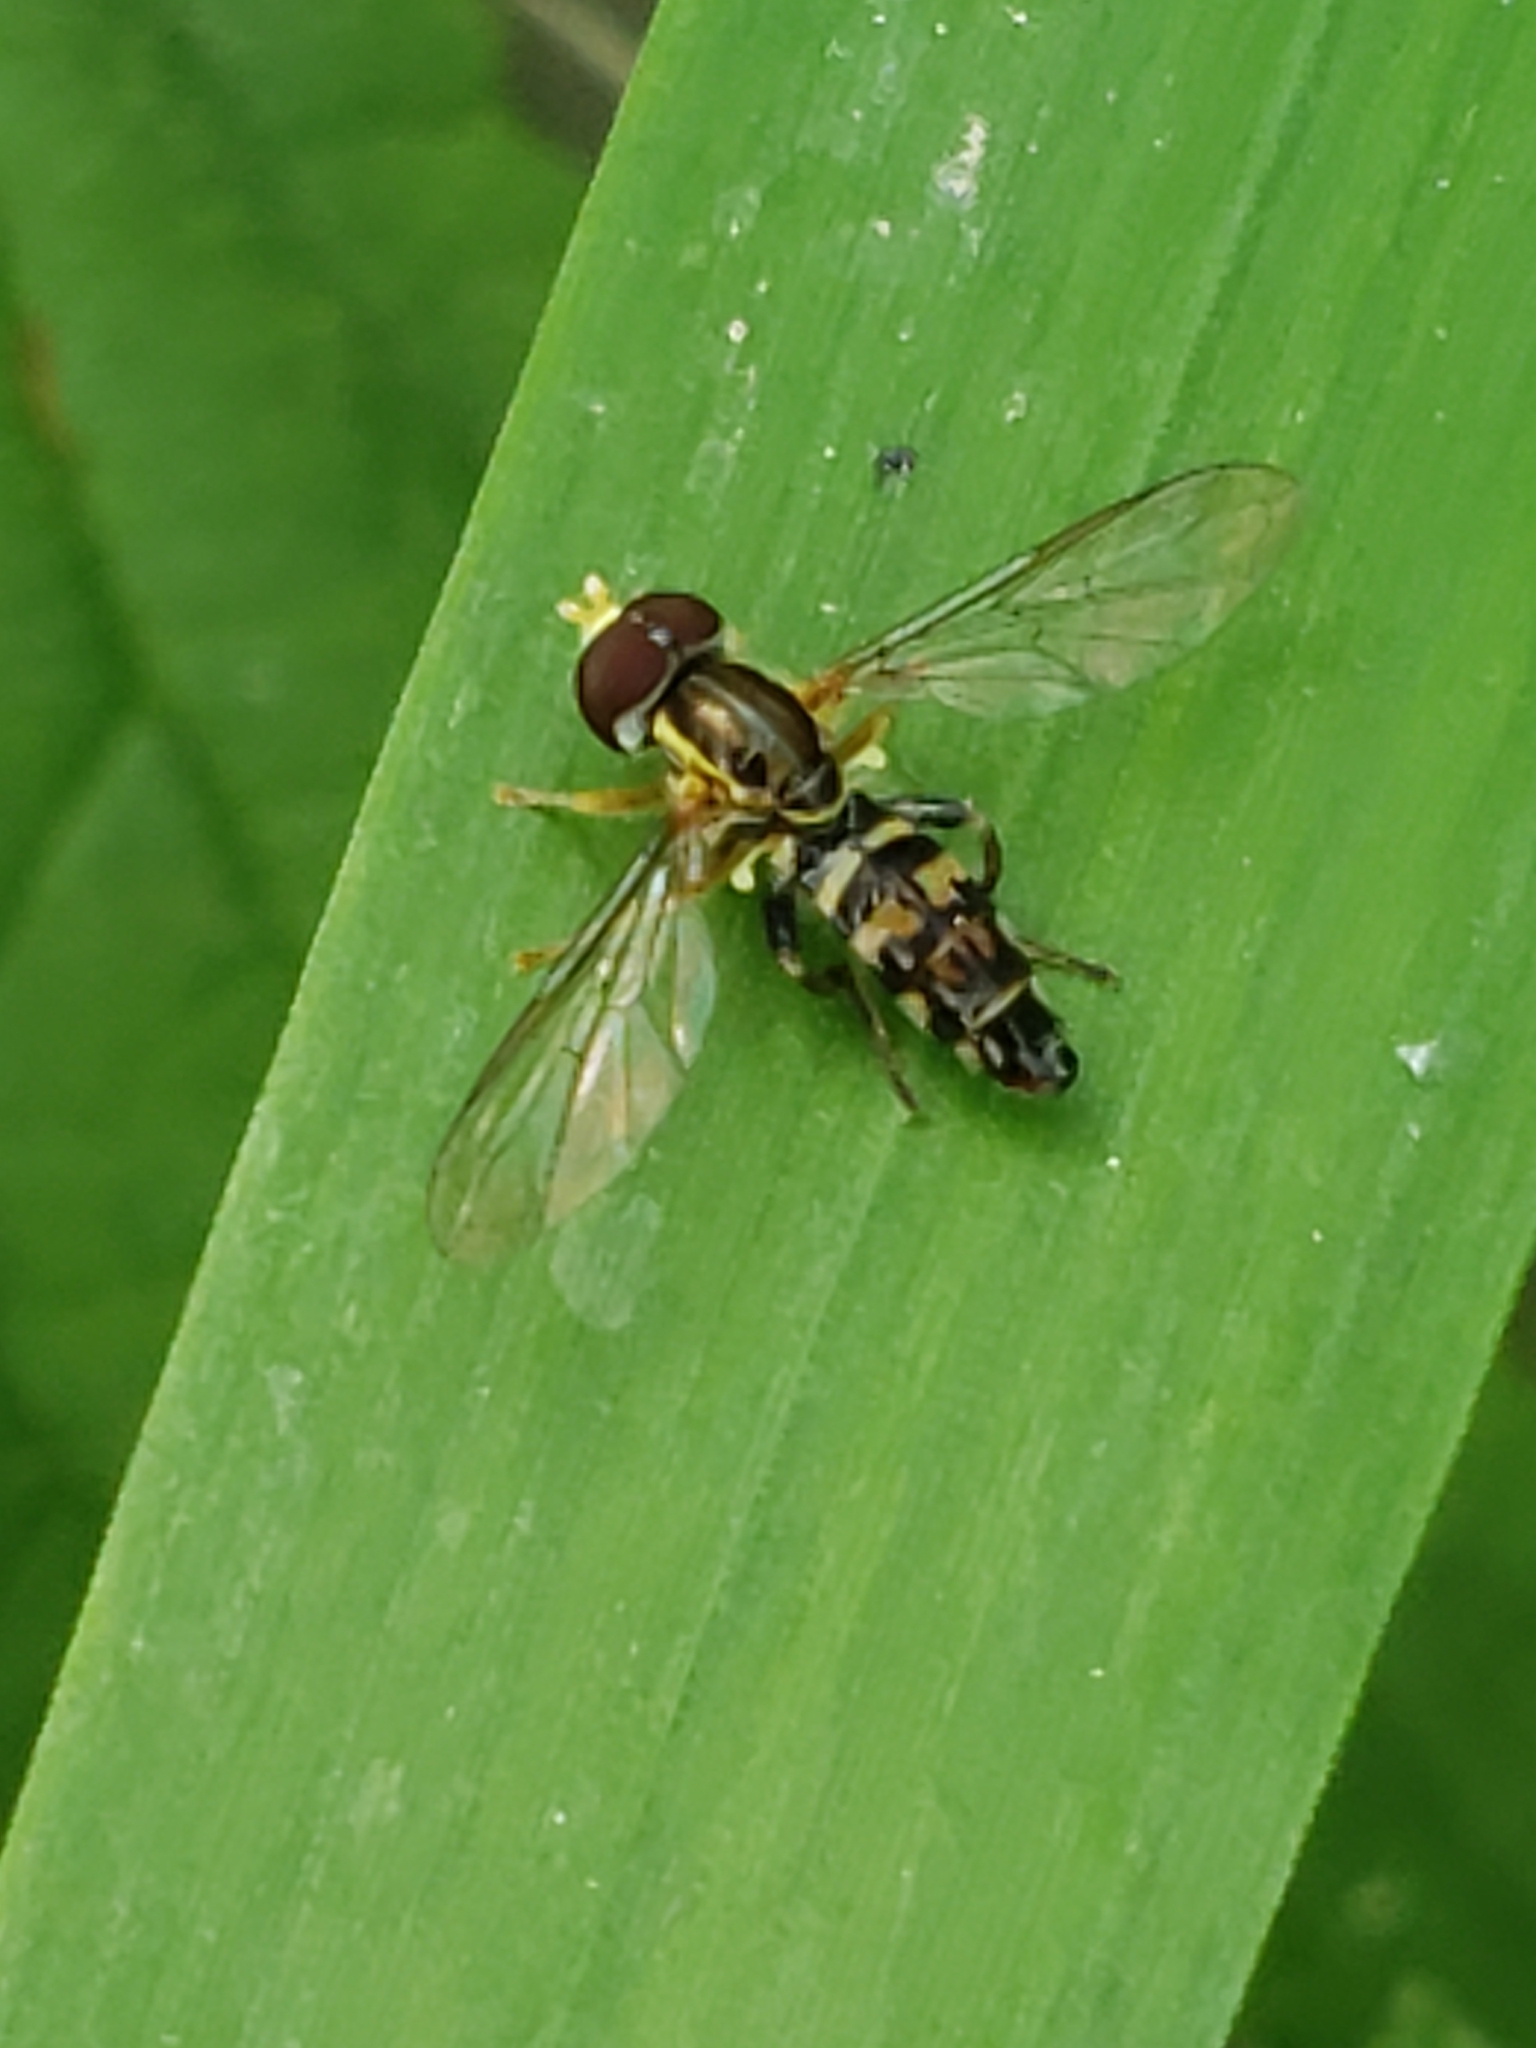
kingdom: Animalia
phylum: Arthropoda
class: Insecta
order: Diptera
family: Syrphidae
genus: Toxomerus
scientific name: Toxomerus geminatus
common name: Eastern calligrapher
